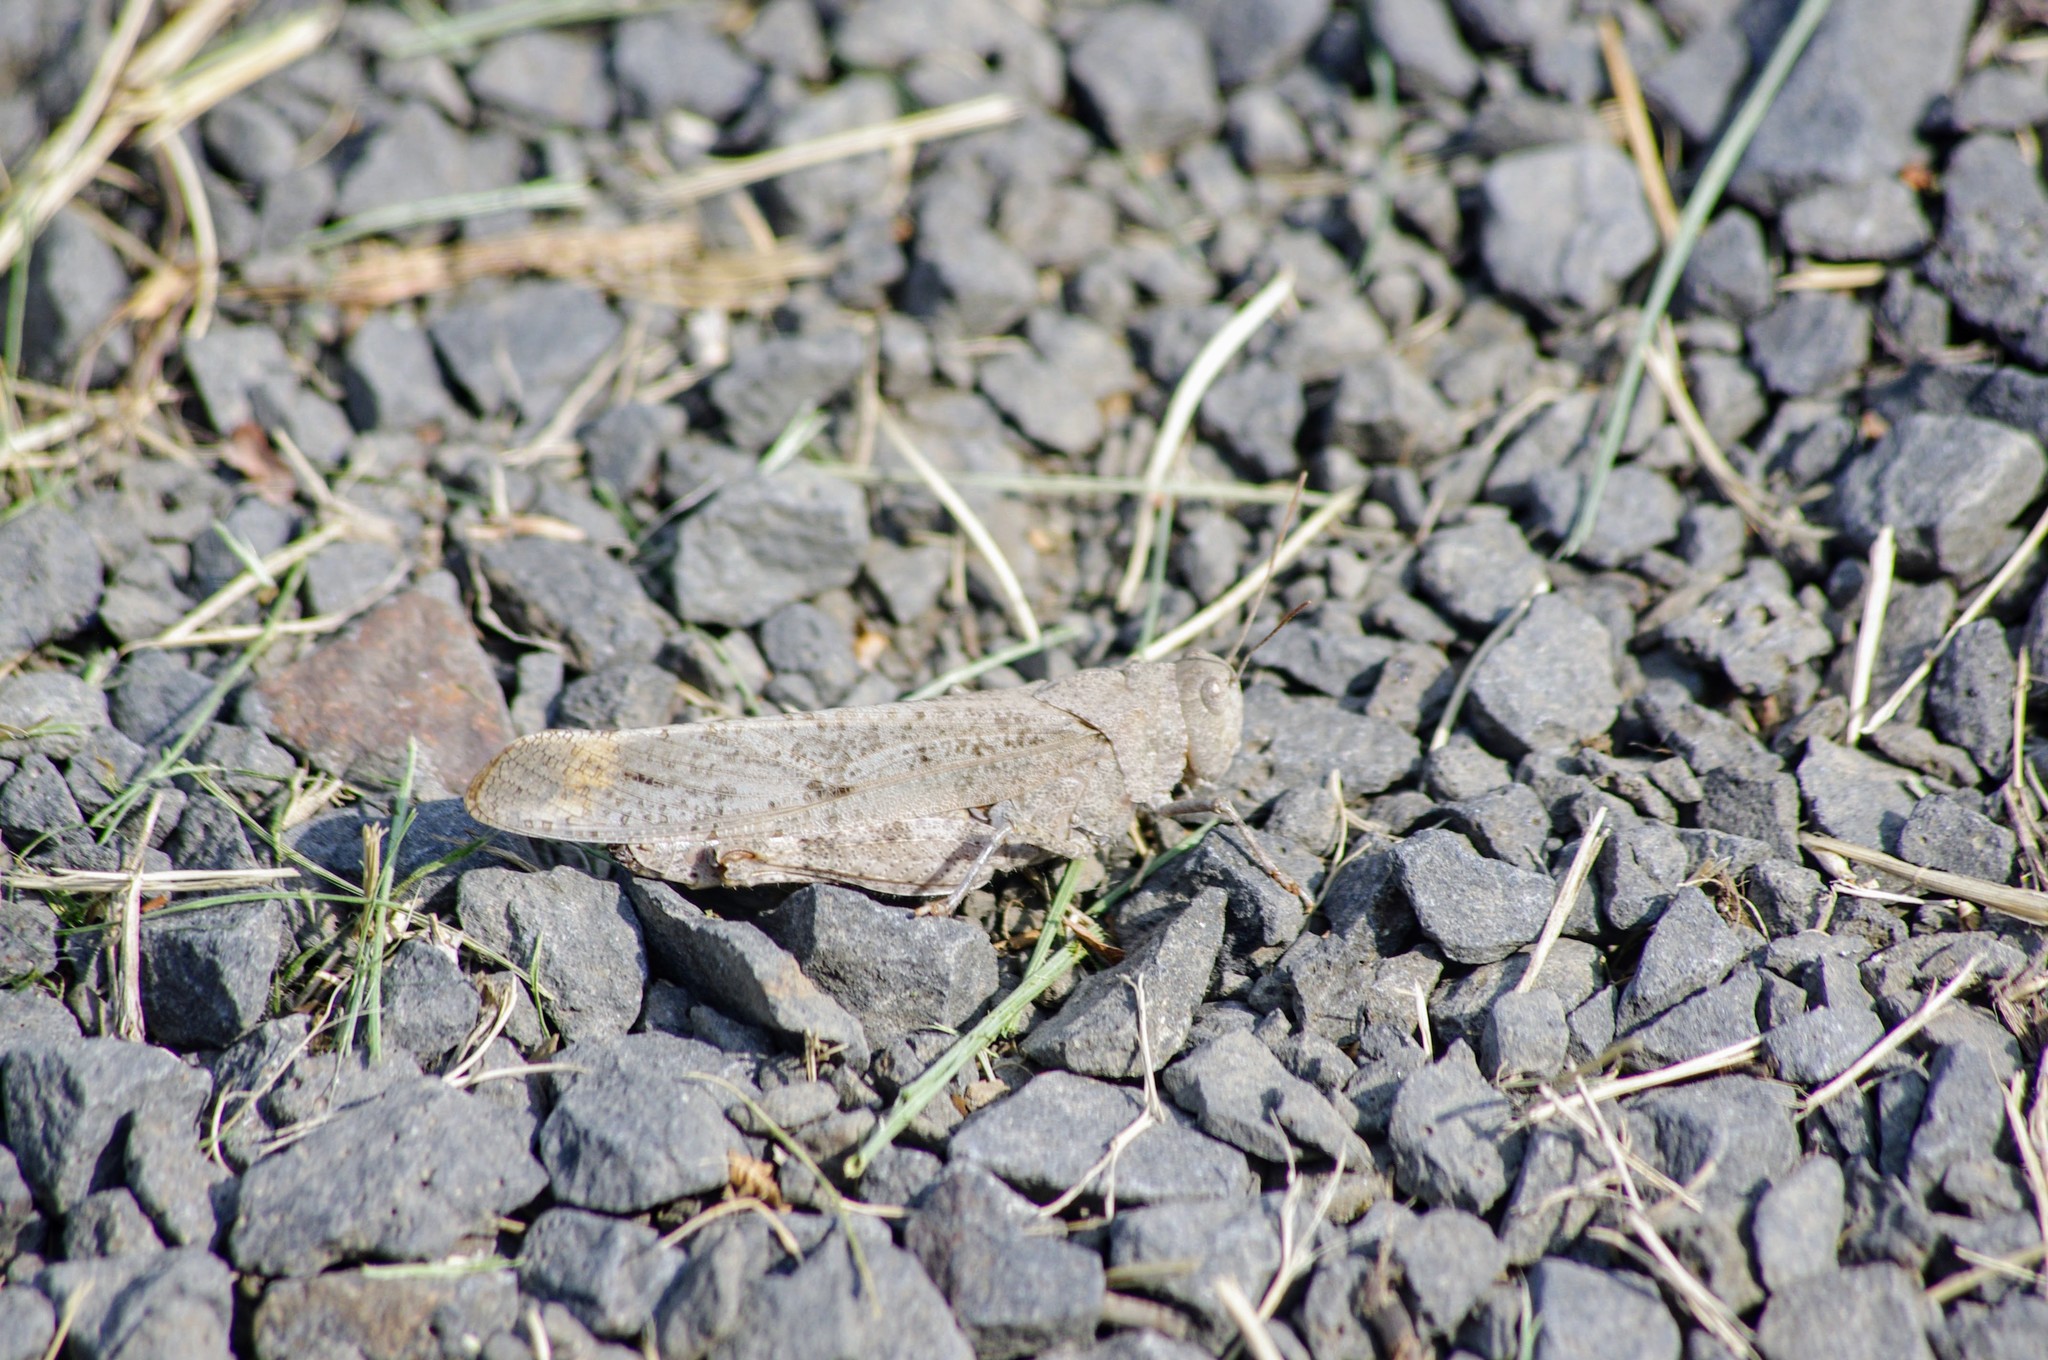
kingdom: Animalia
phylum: Arthropoda
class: Insecta
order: Orthoptera
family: Acrididae
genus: Dissosteira
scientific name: Dissosteira carolina
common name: Carolina grasshopper
